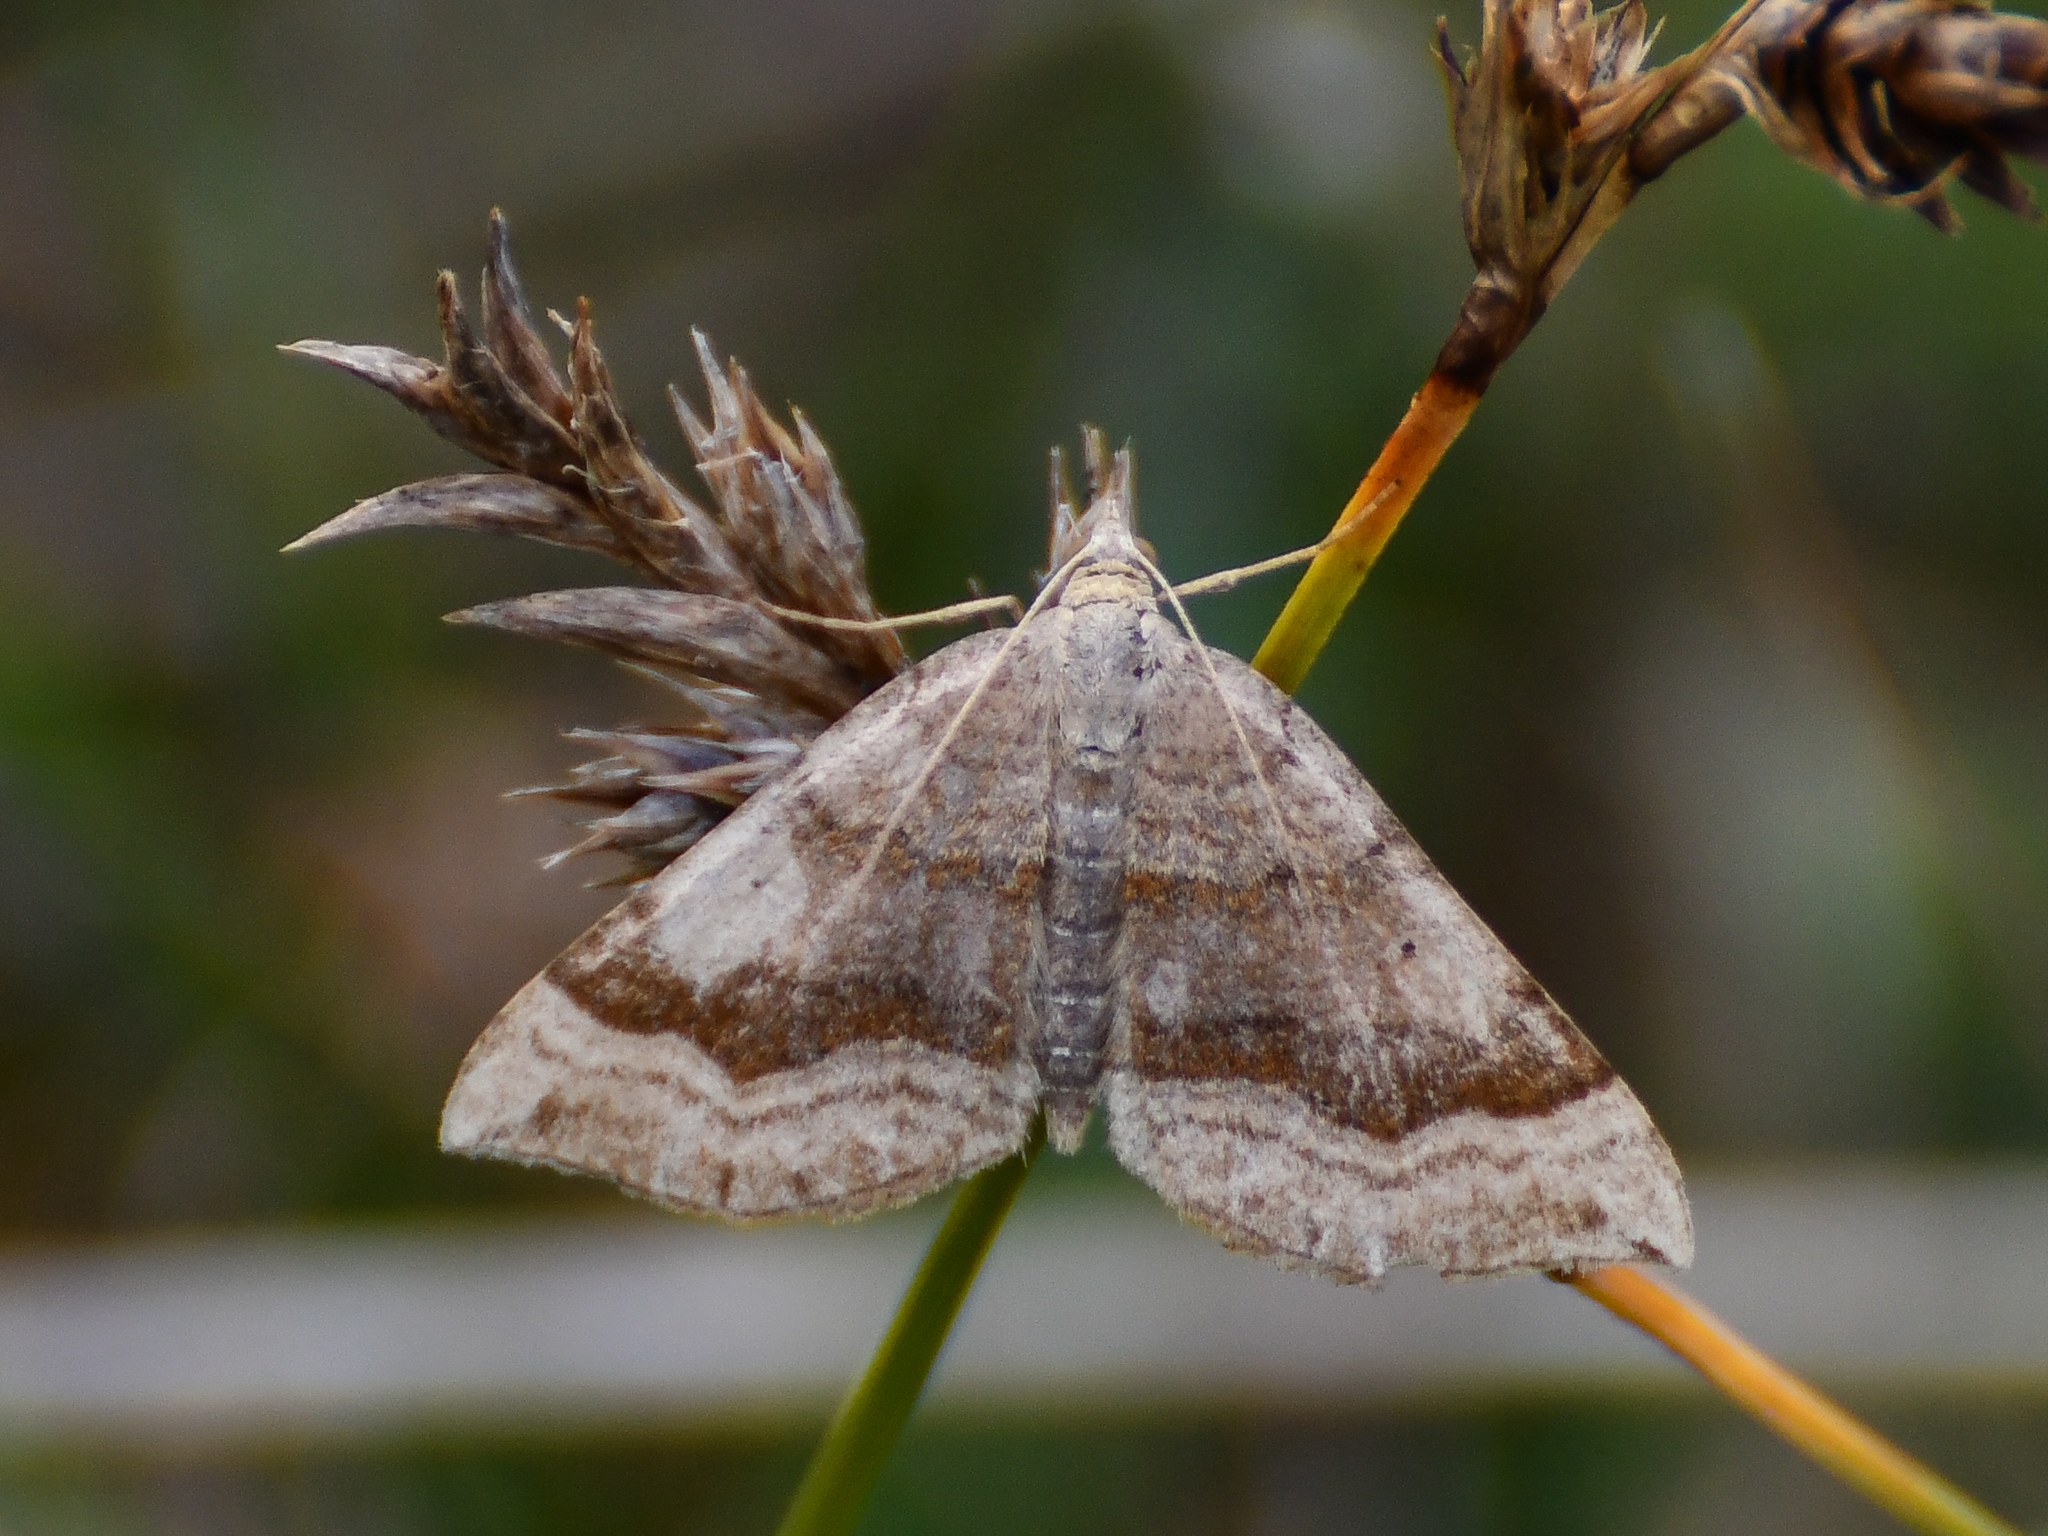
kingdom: Animalia
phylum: Arthropoda
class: Insecta
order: Lepidoptera
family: Geometridae
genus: Scotopteryx
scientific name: Scotopteryx chenopodiata
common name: Shaded broad-bar
